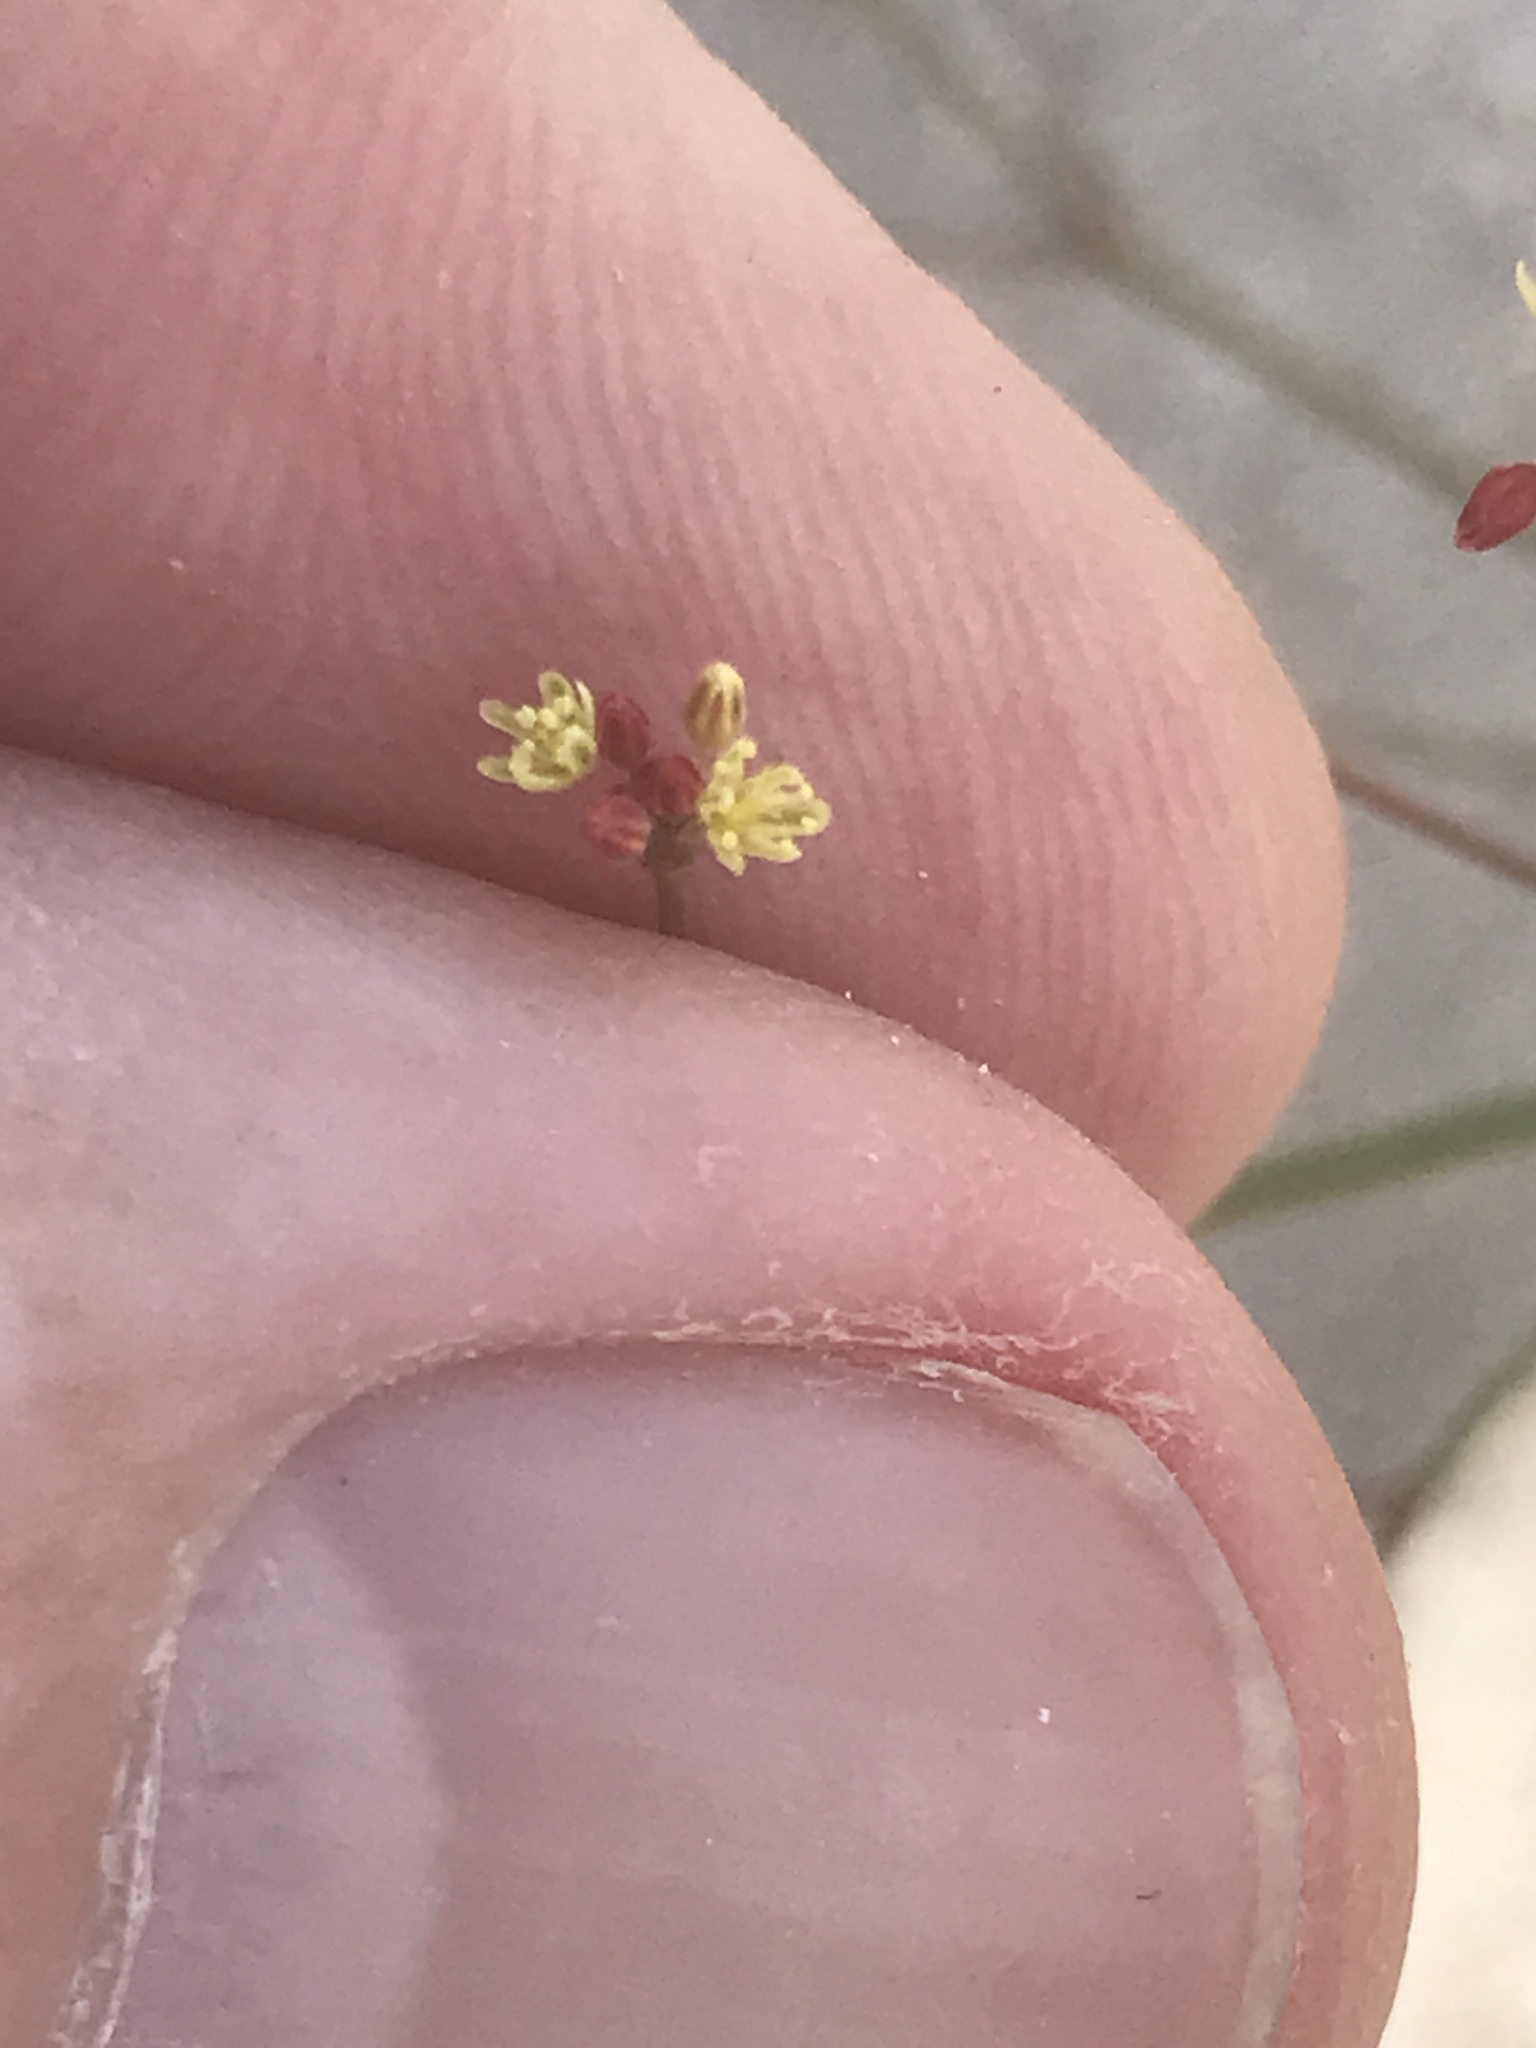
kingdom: Plantae
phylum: Tracheophyta
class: Magnoliopsida
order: Caryophyllales
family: Polygonaceae
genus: Eriogonum
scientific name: Eriogonum thomasii
